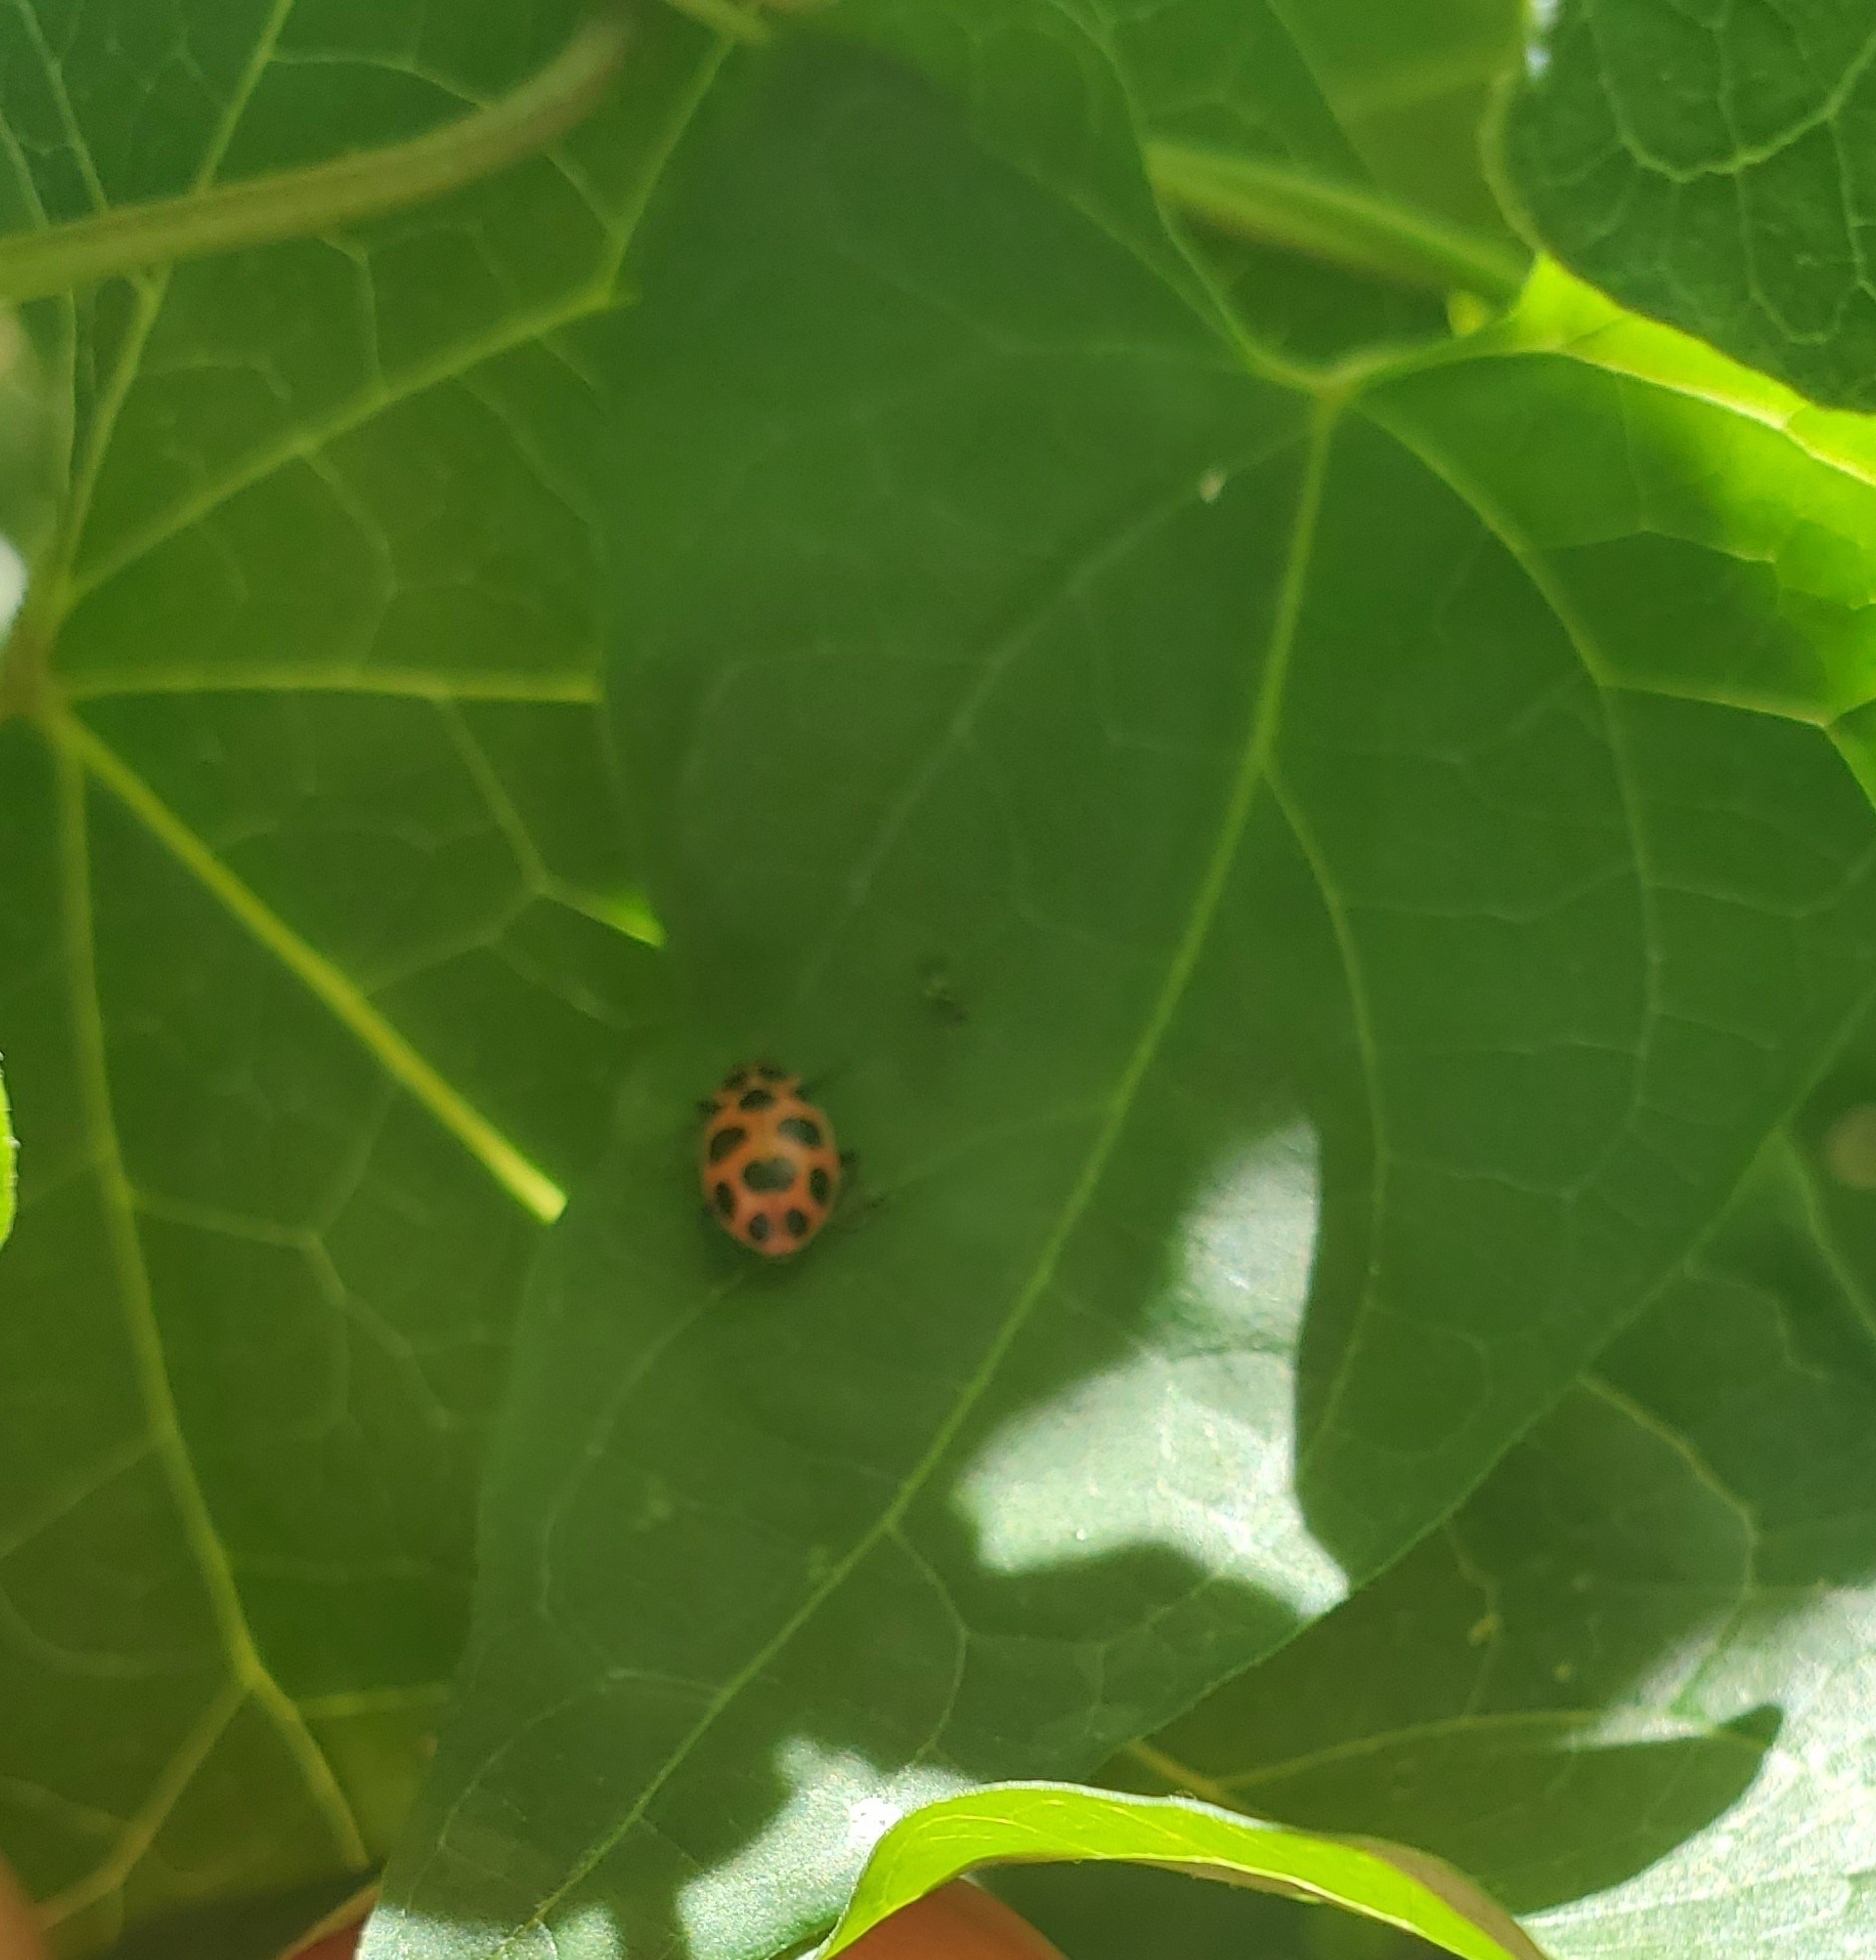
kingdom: Animalia
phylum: Arthropoda
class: Insecta
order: Coleoptera
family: Coccinellidae
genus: Coleomegilla
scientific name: Coleomegilla maculata
